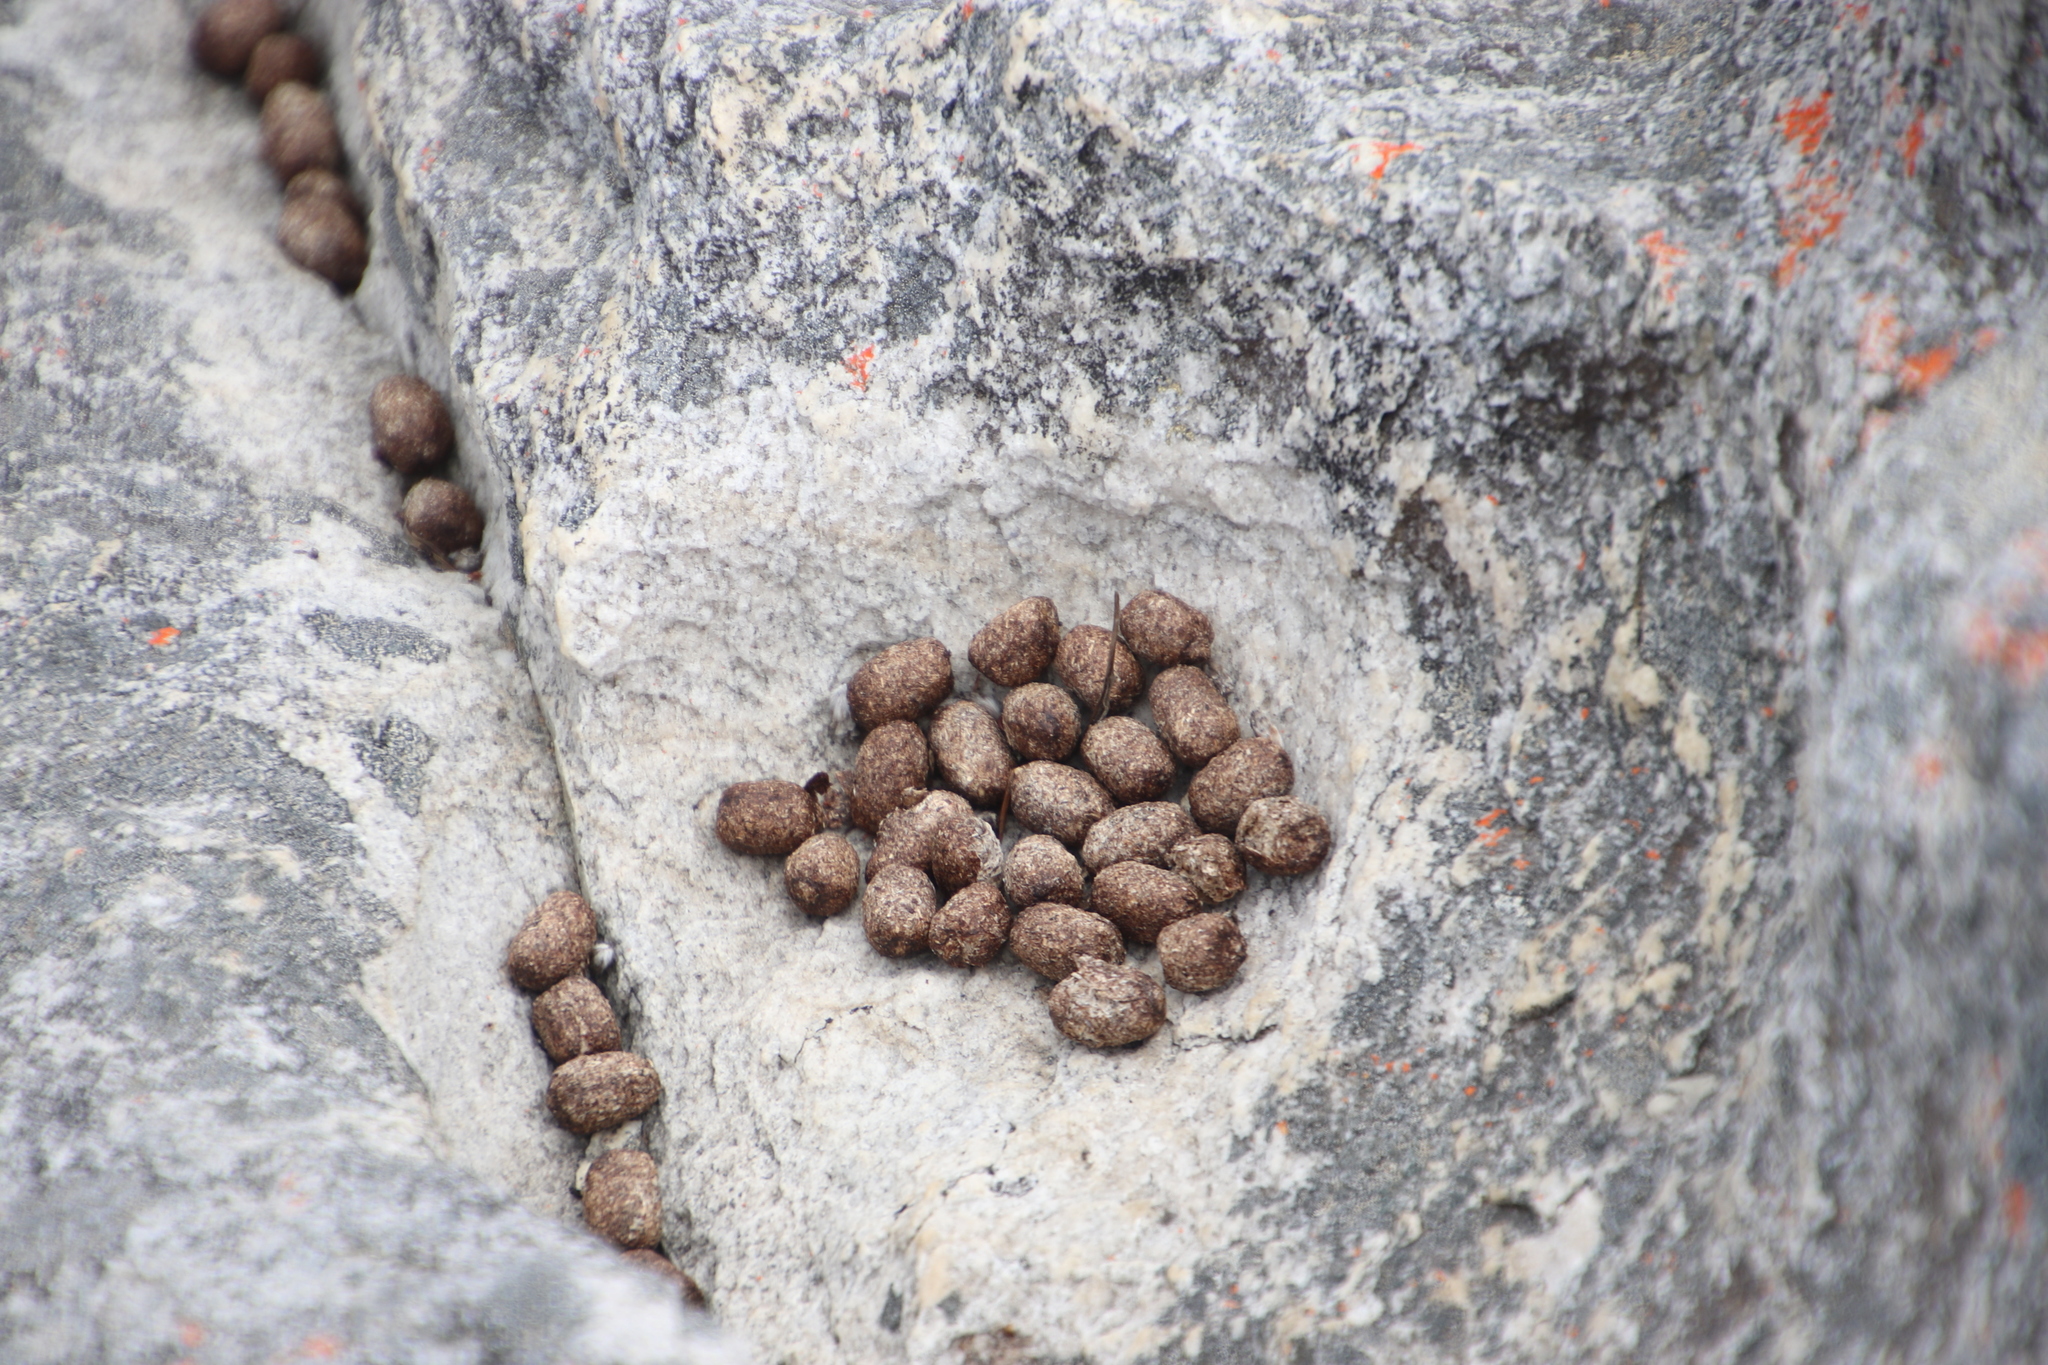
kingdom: Animalia
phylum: Chordata
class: Mammalia
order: Hyracoidea
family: Procaviidae
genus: Procavia
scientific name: Procavia capensis
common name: Rock hyrax
